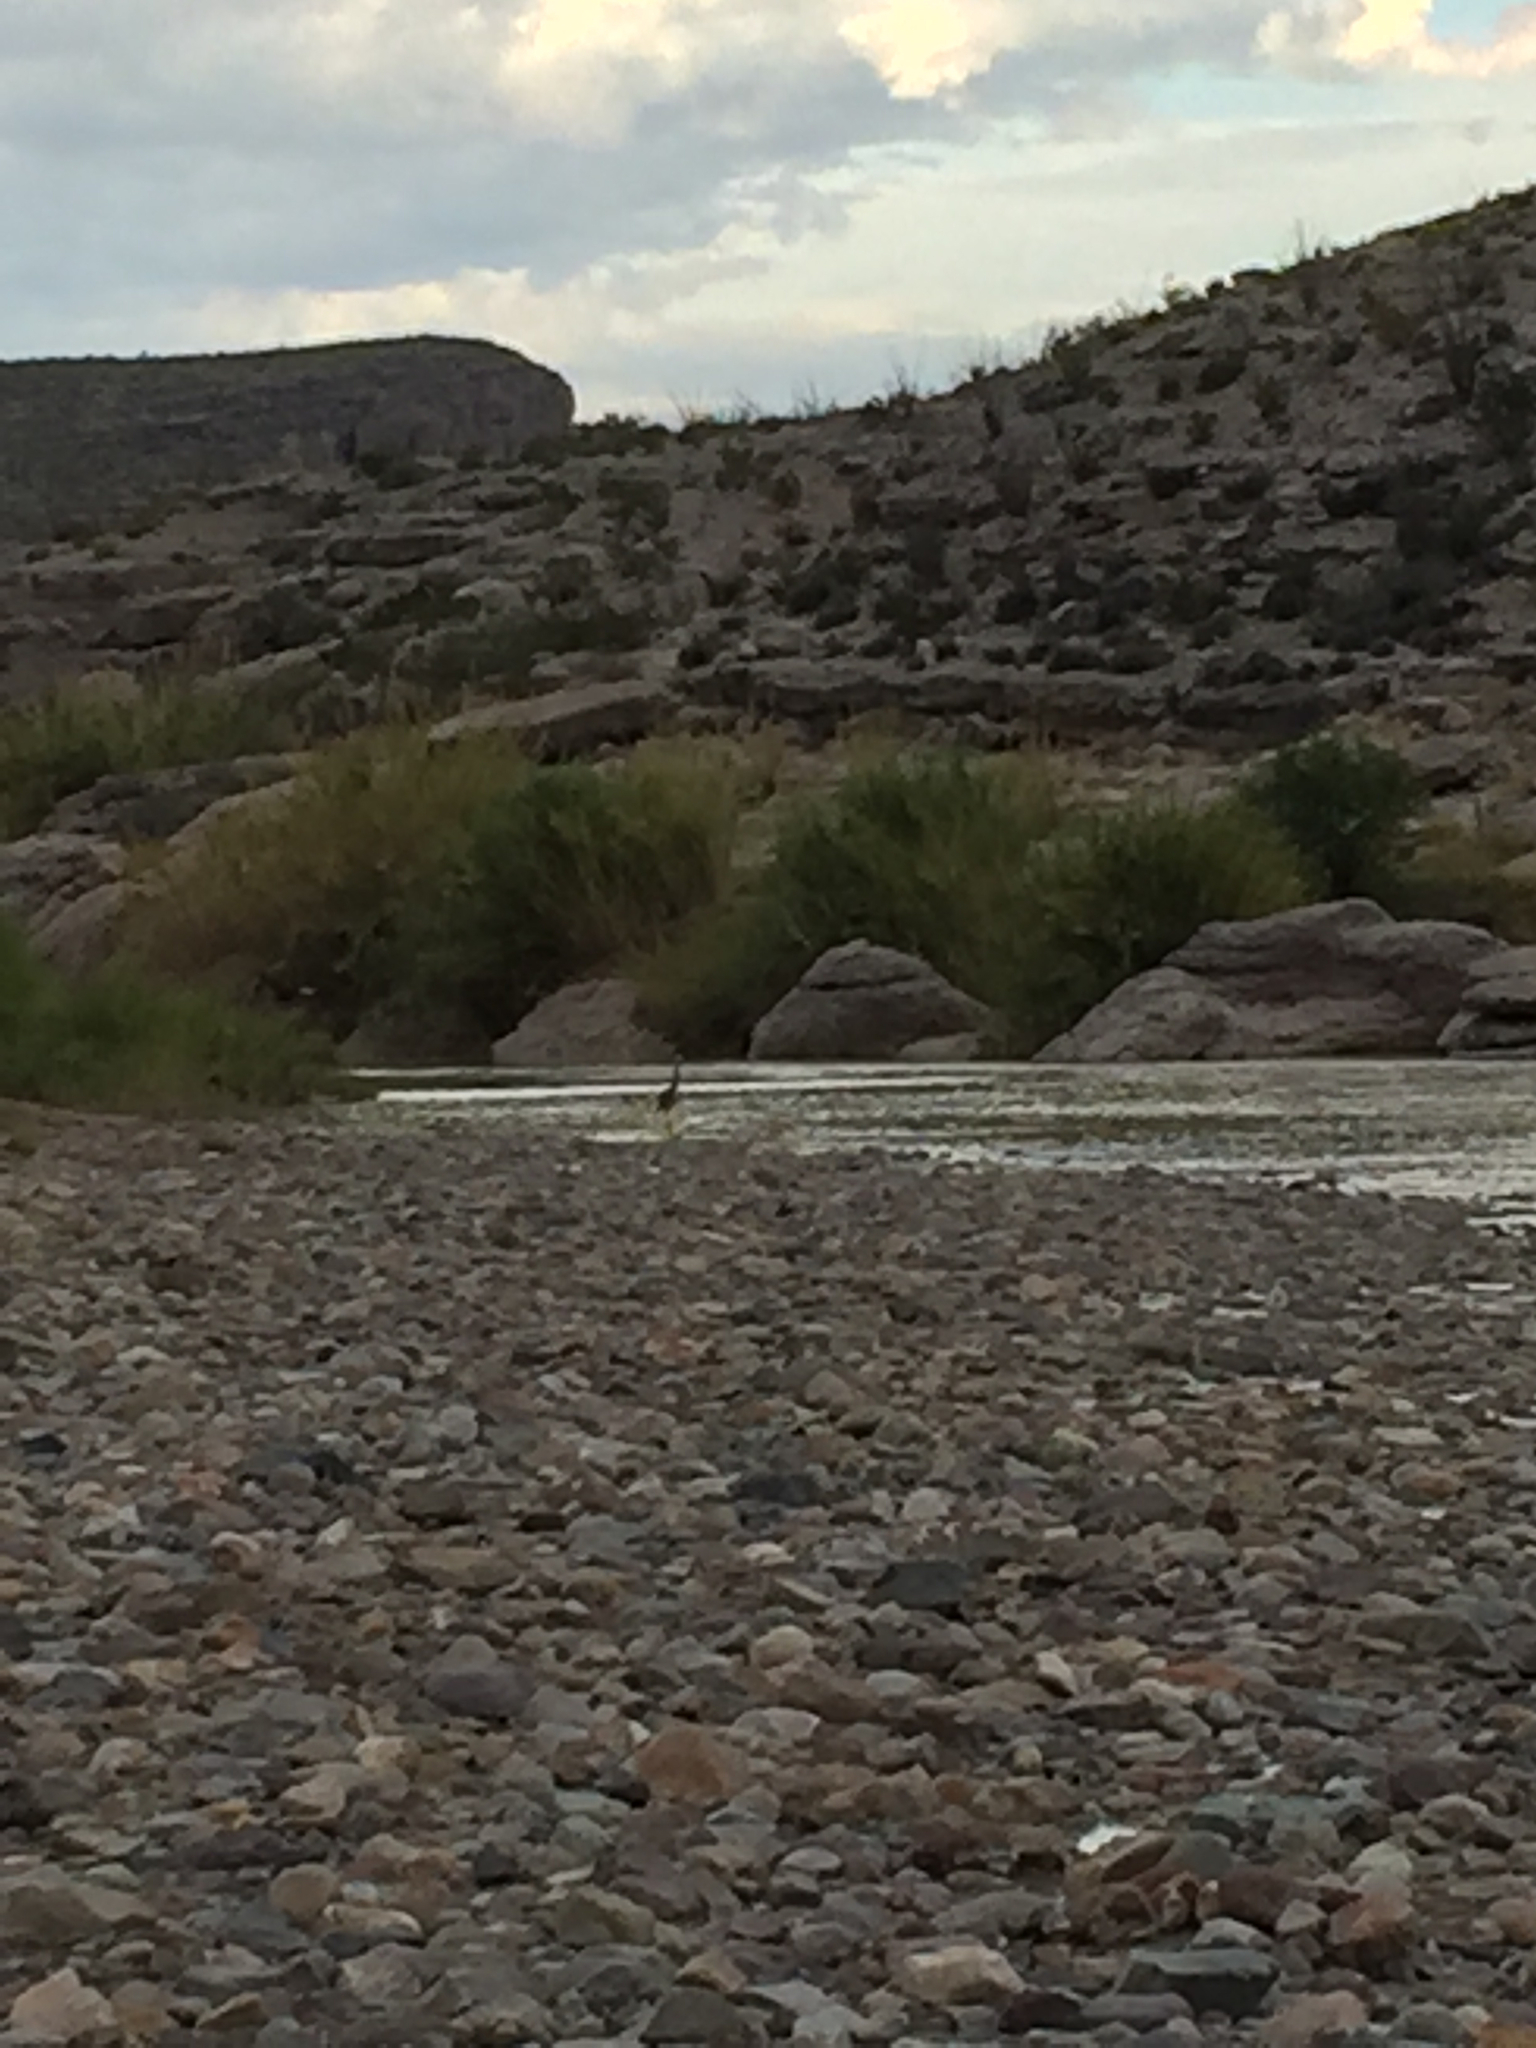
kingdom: Animalia
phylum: Chordata
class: Aves
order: Pelecaniformes
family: Ardeidae
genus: Ardea
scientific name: Ardea herodias
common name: Great blue heron
